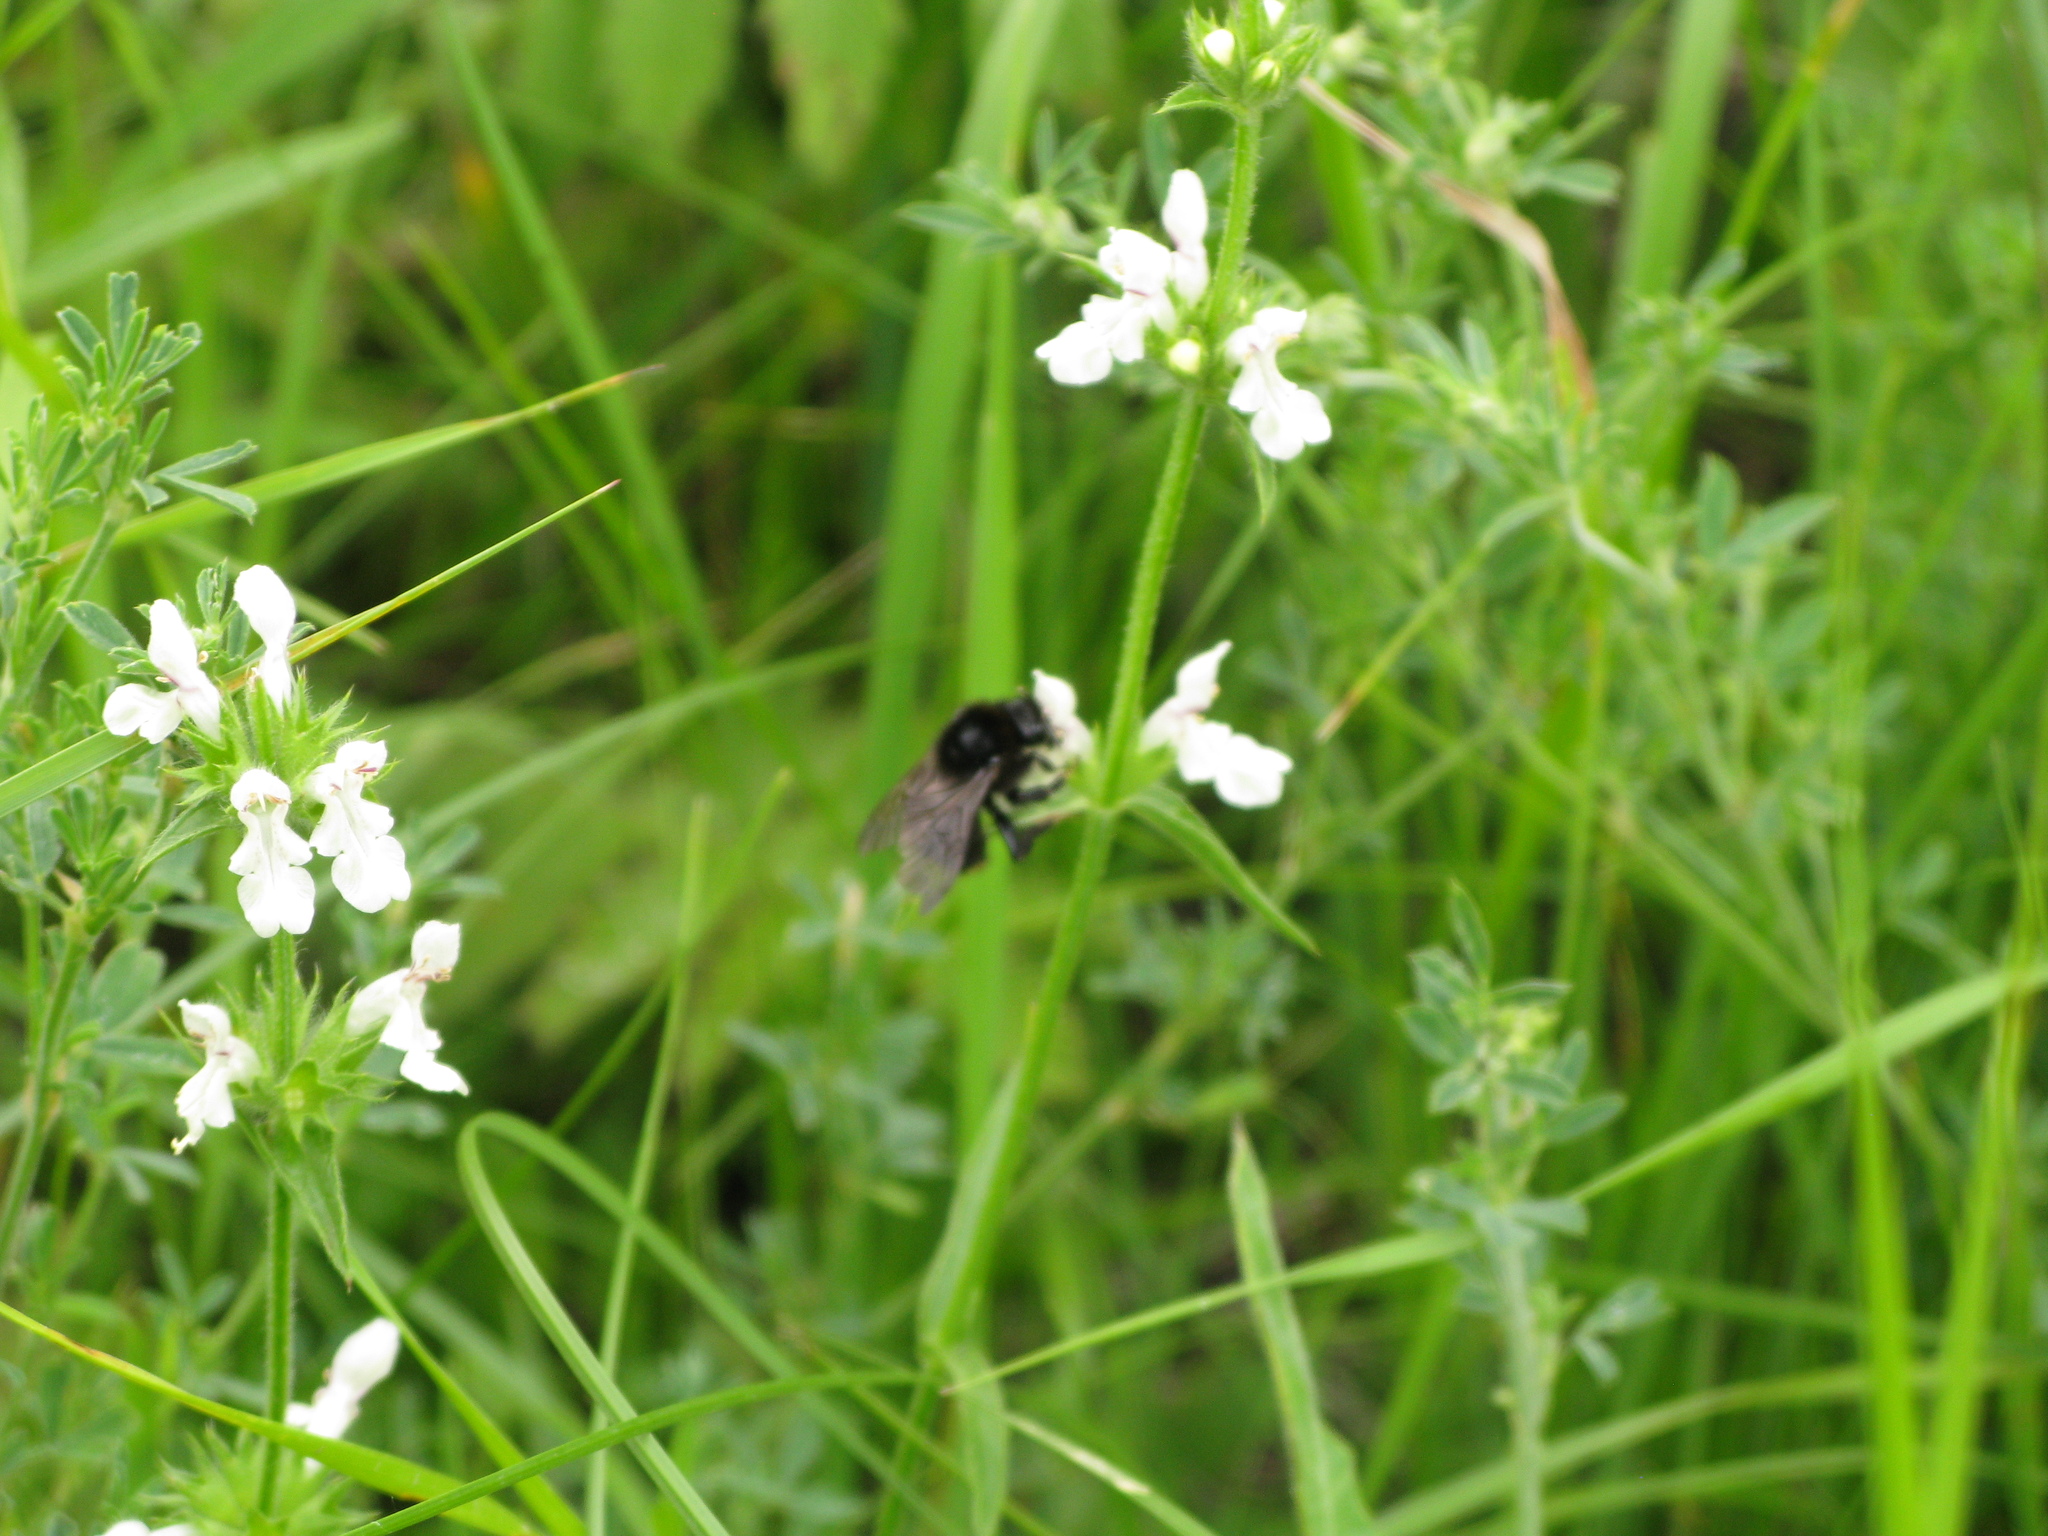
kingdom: Animalia
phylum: Arthropoda
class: Insecta
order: Hymenoptera
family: Apidae
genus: Bombus
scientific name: Bombus barbutellus
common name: Barbut's cuckoo-bee
